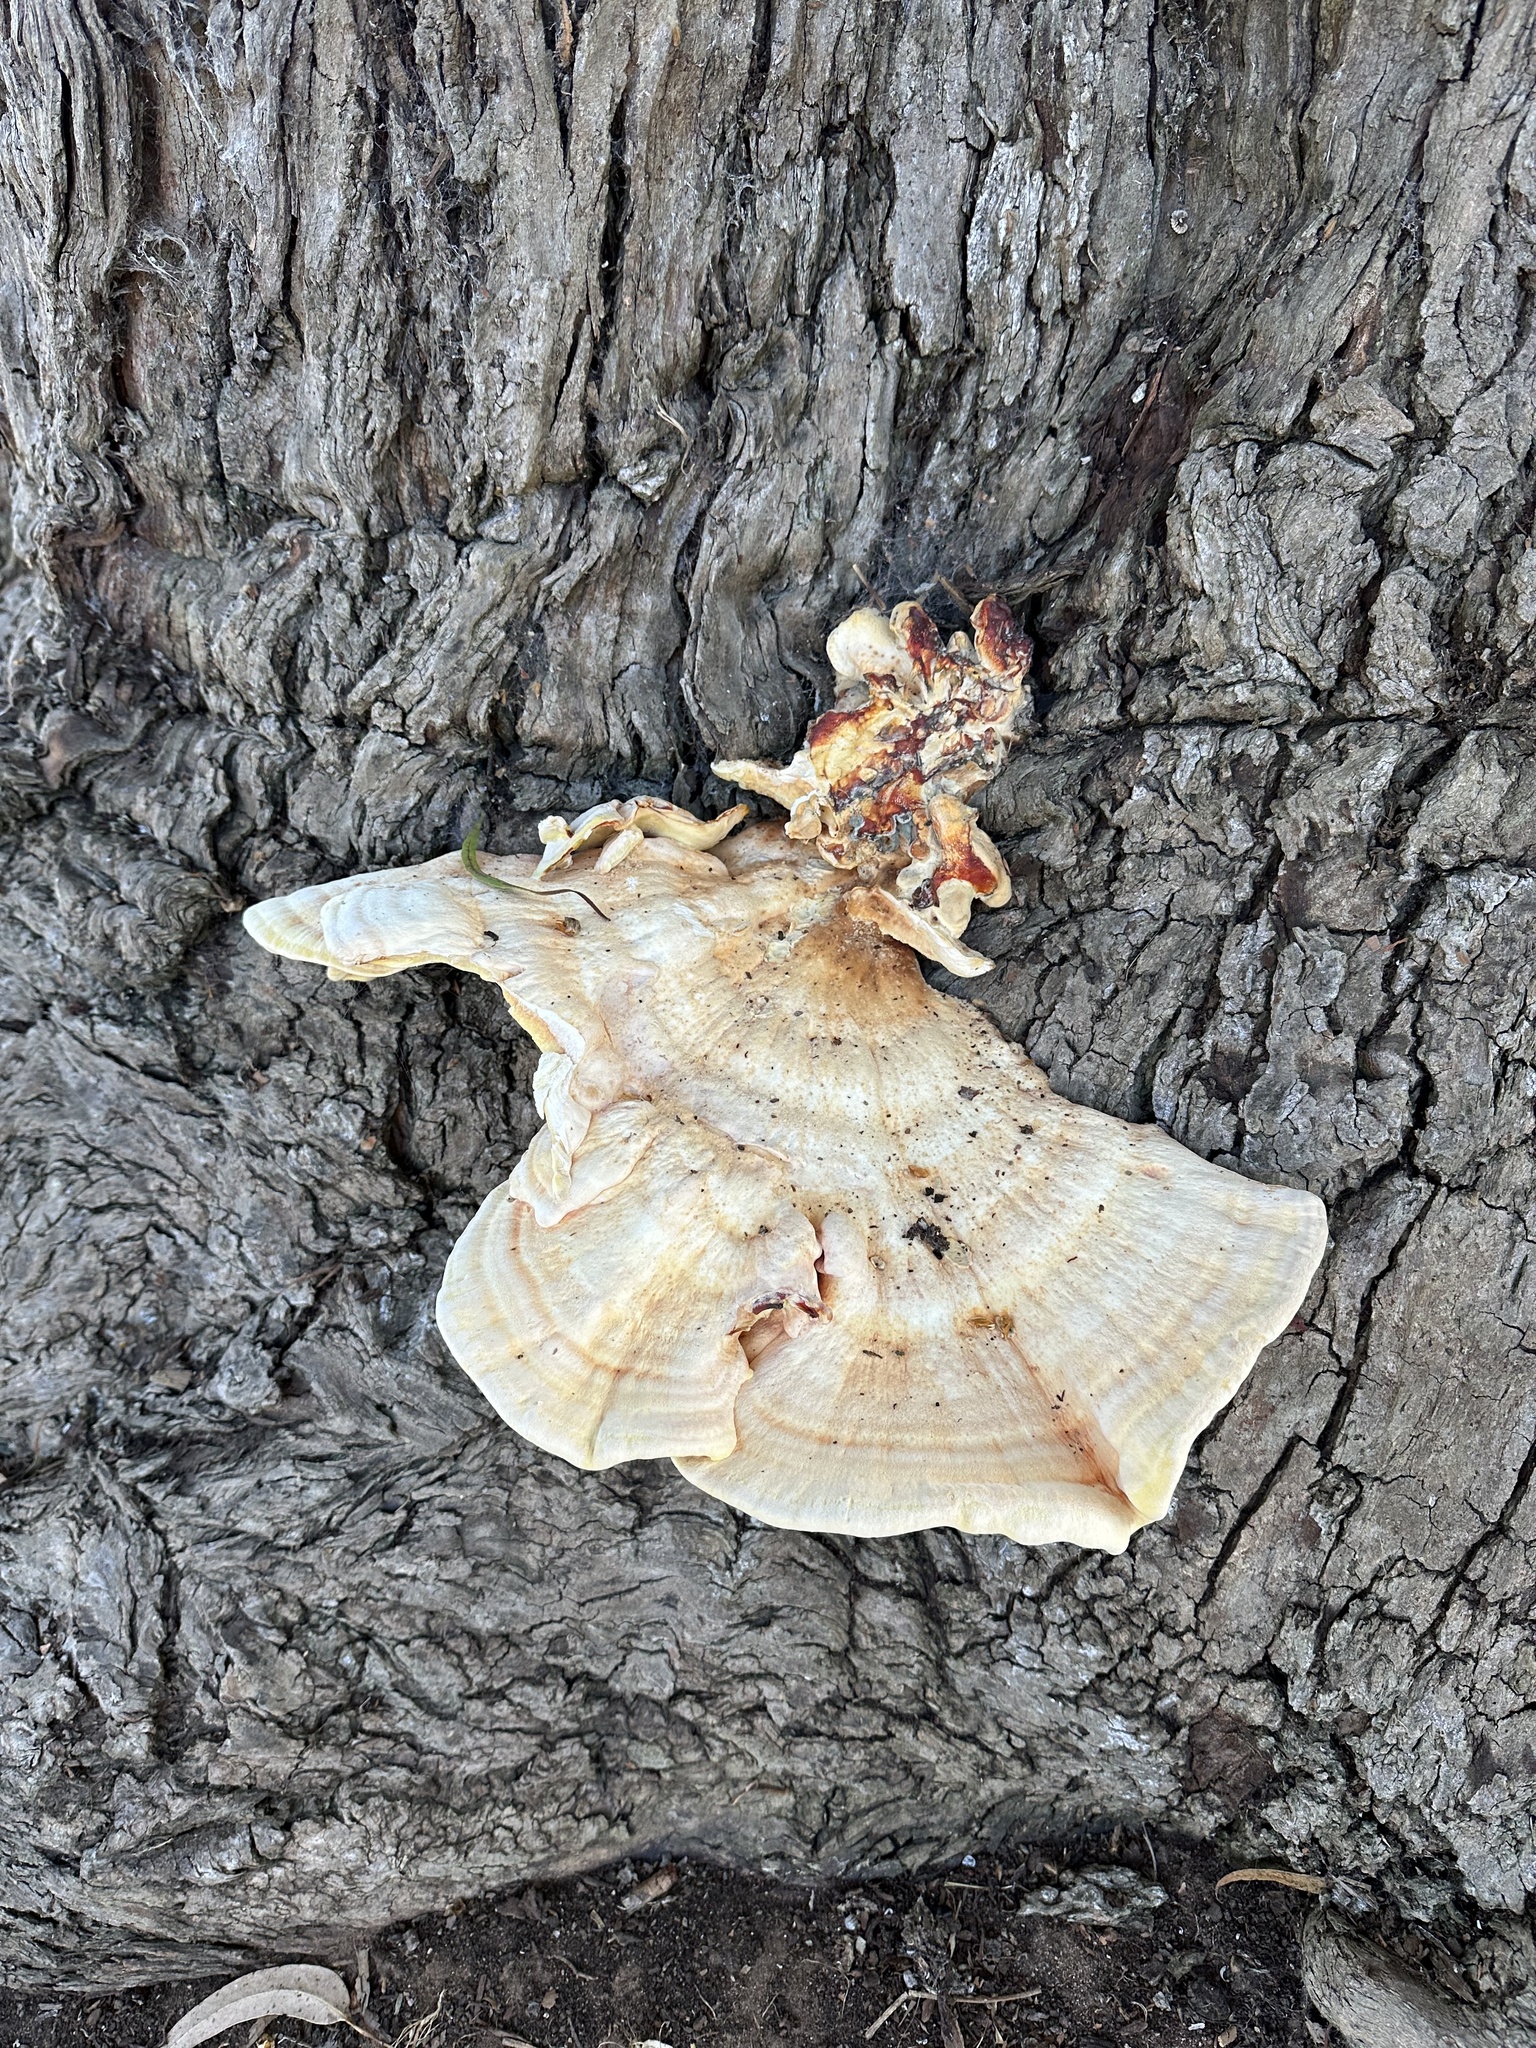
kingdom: Fungi
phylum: Basidiomycota
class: Agaricomycetes
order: Polyporales
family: Laetiporaceae
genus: Laetiporus
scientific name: Laetiporus gilbertsonii
